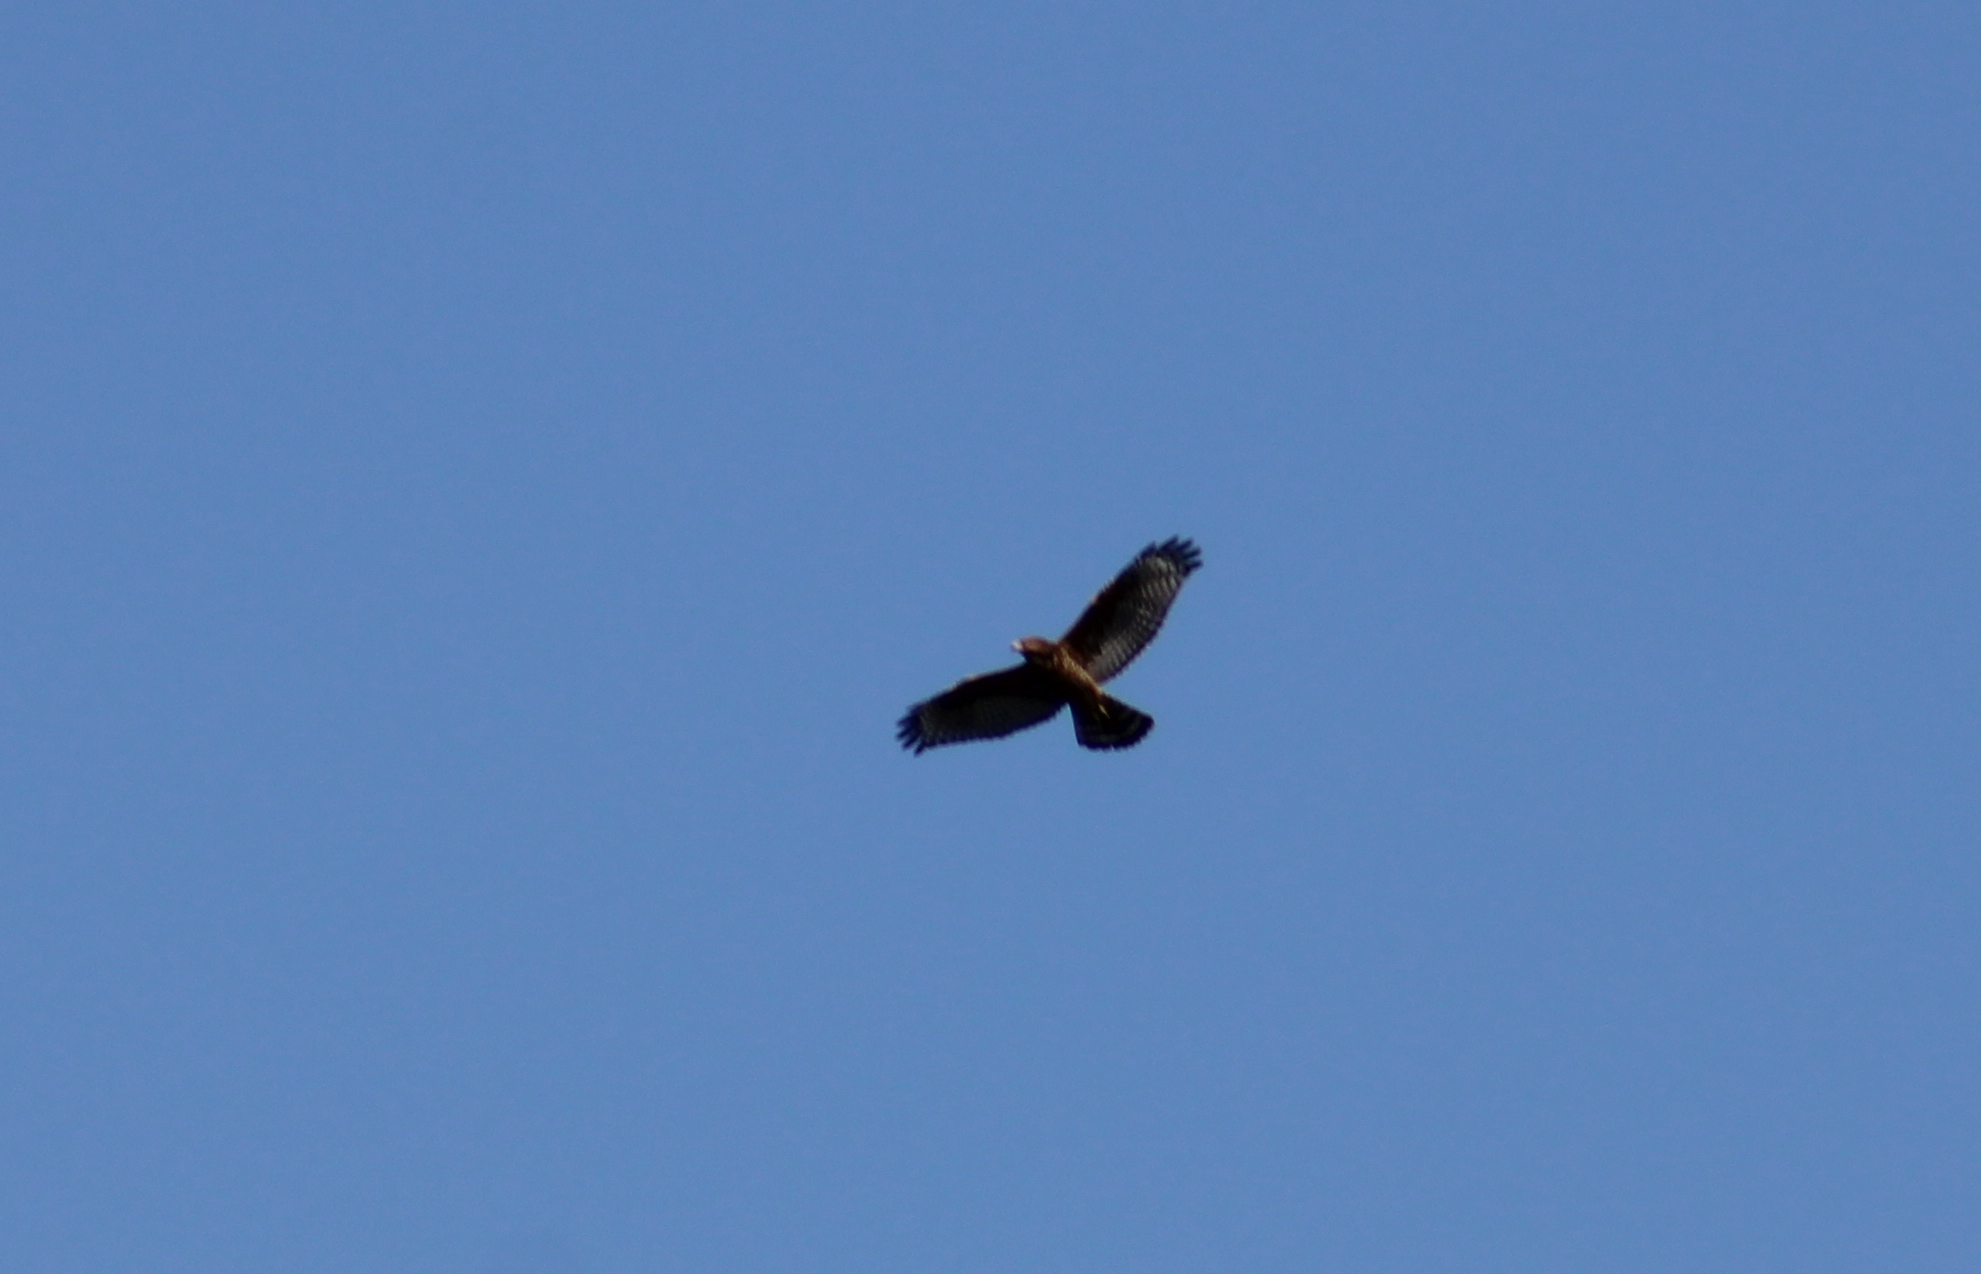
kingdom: Animalia
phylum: Chordata
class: Aves
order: Accipitriformes
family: Accipitridae
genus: Buteo
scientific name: Buteo lineatus
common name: Red-shouldered hawk
